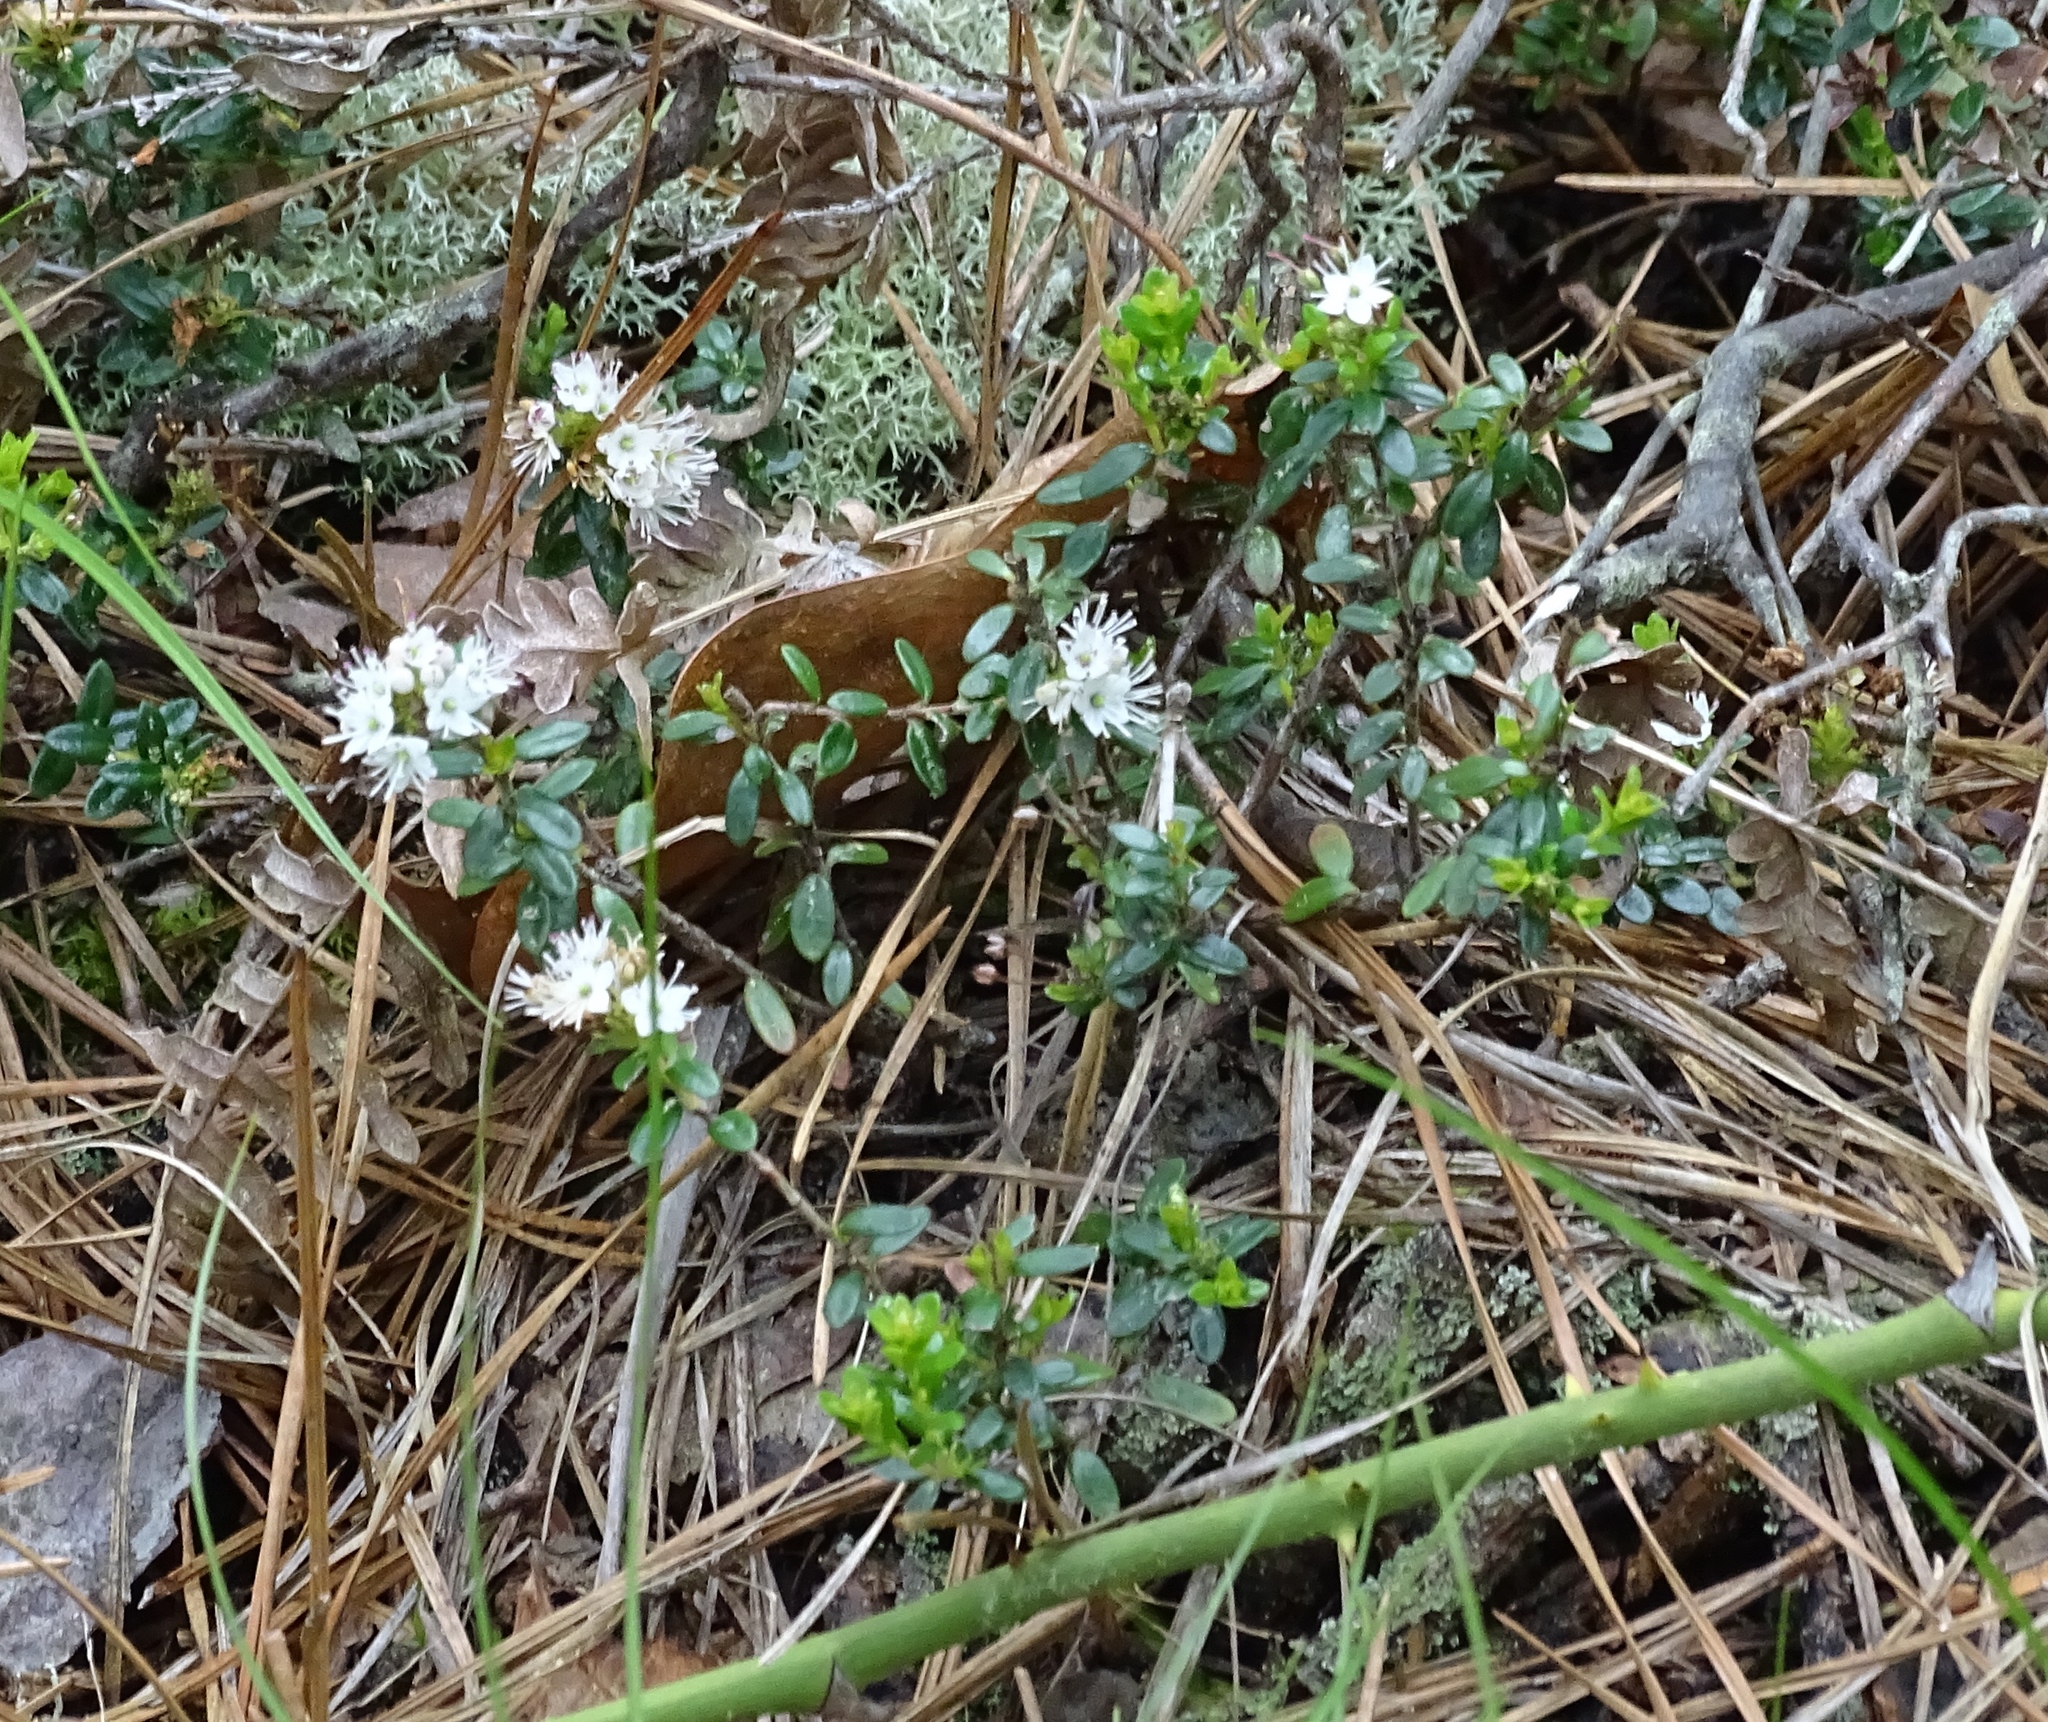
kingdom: Plantae
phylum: Tracheophyta
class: Magnoliopsida
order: Ericales
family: Ericaceae
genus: Kalmia
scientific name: Kalmia buxifolia
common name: Sandmyrtle
